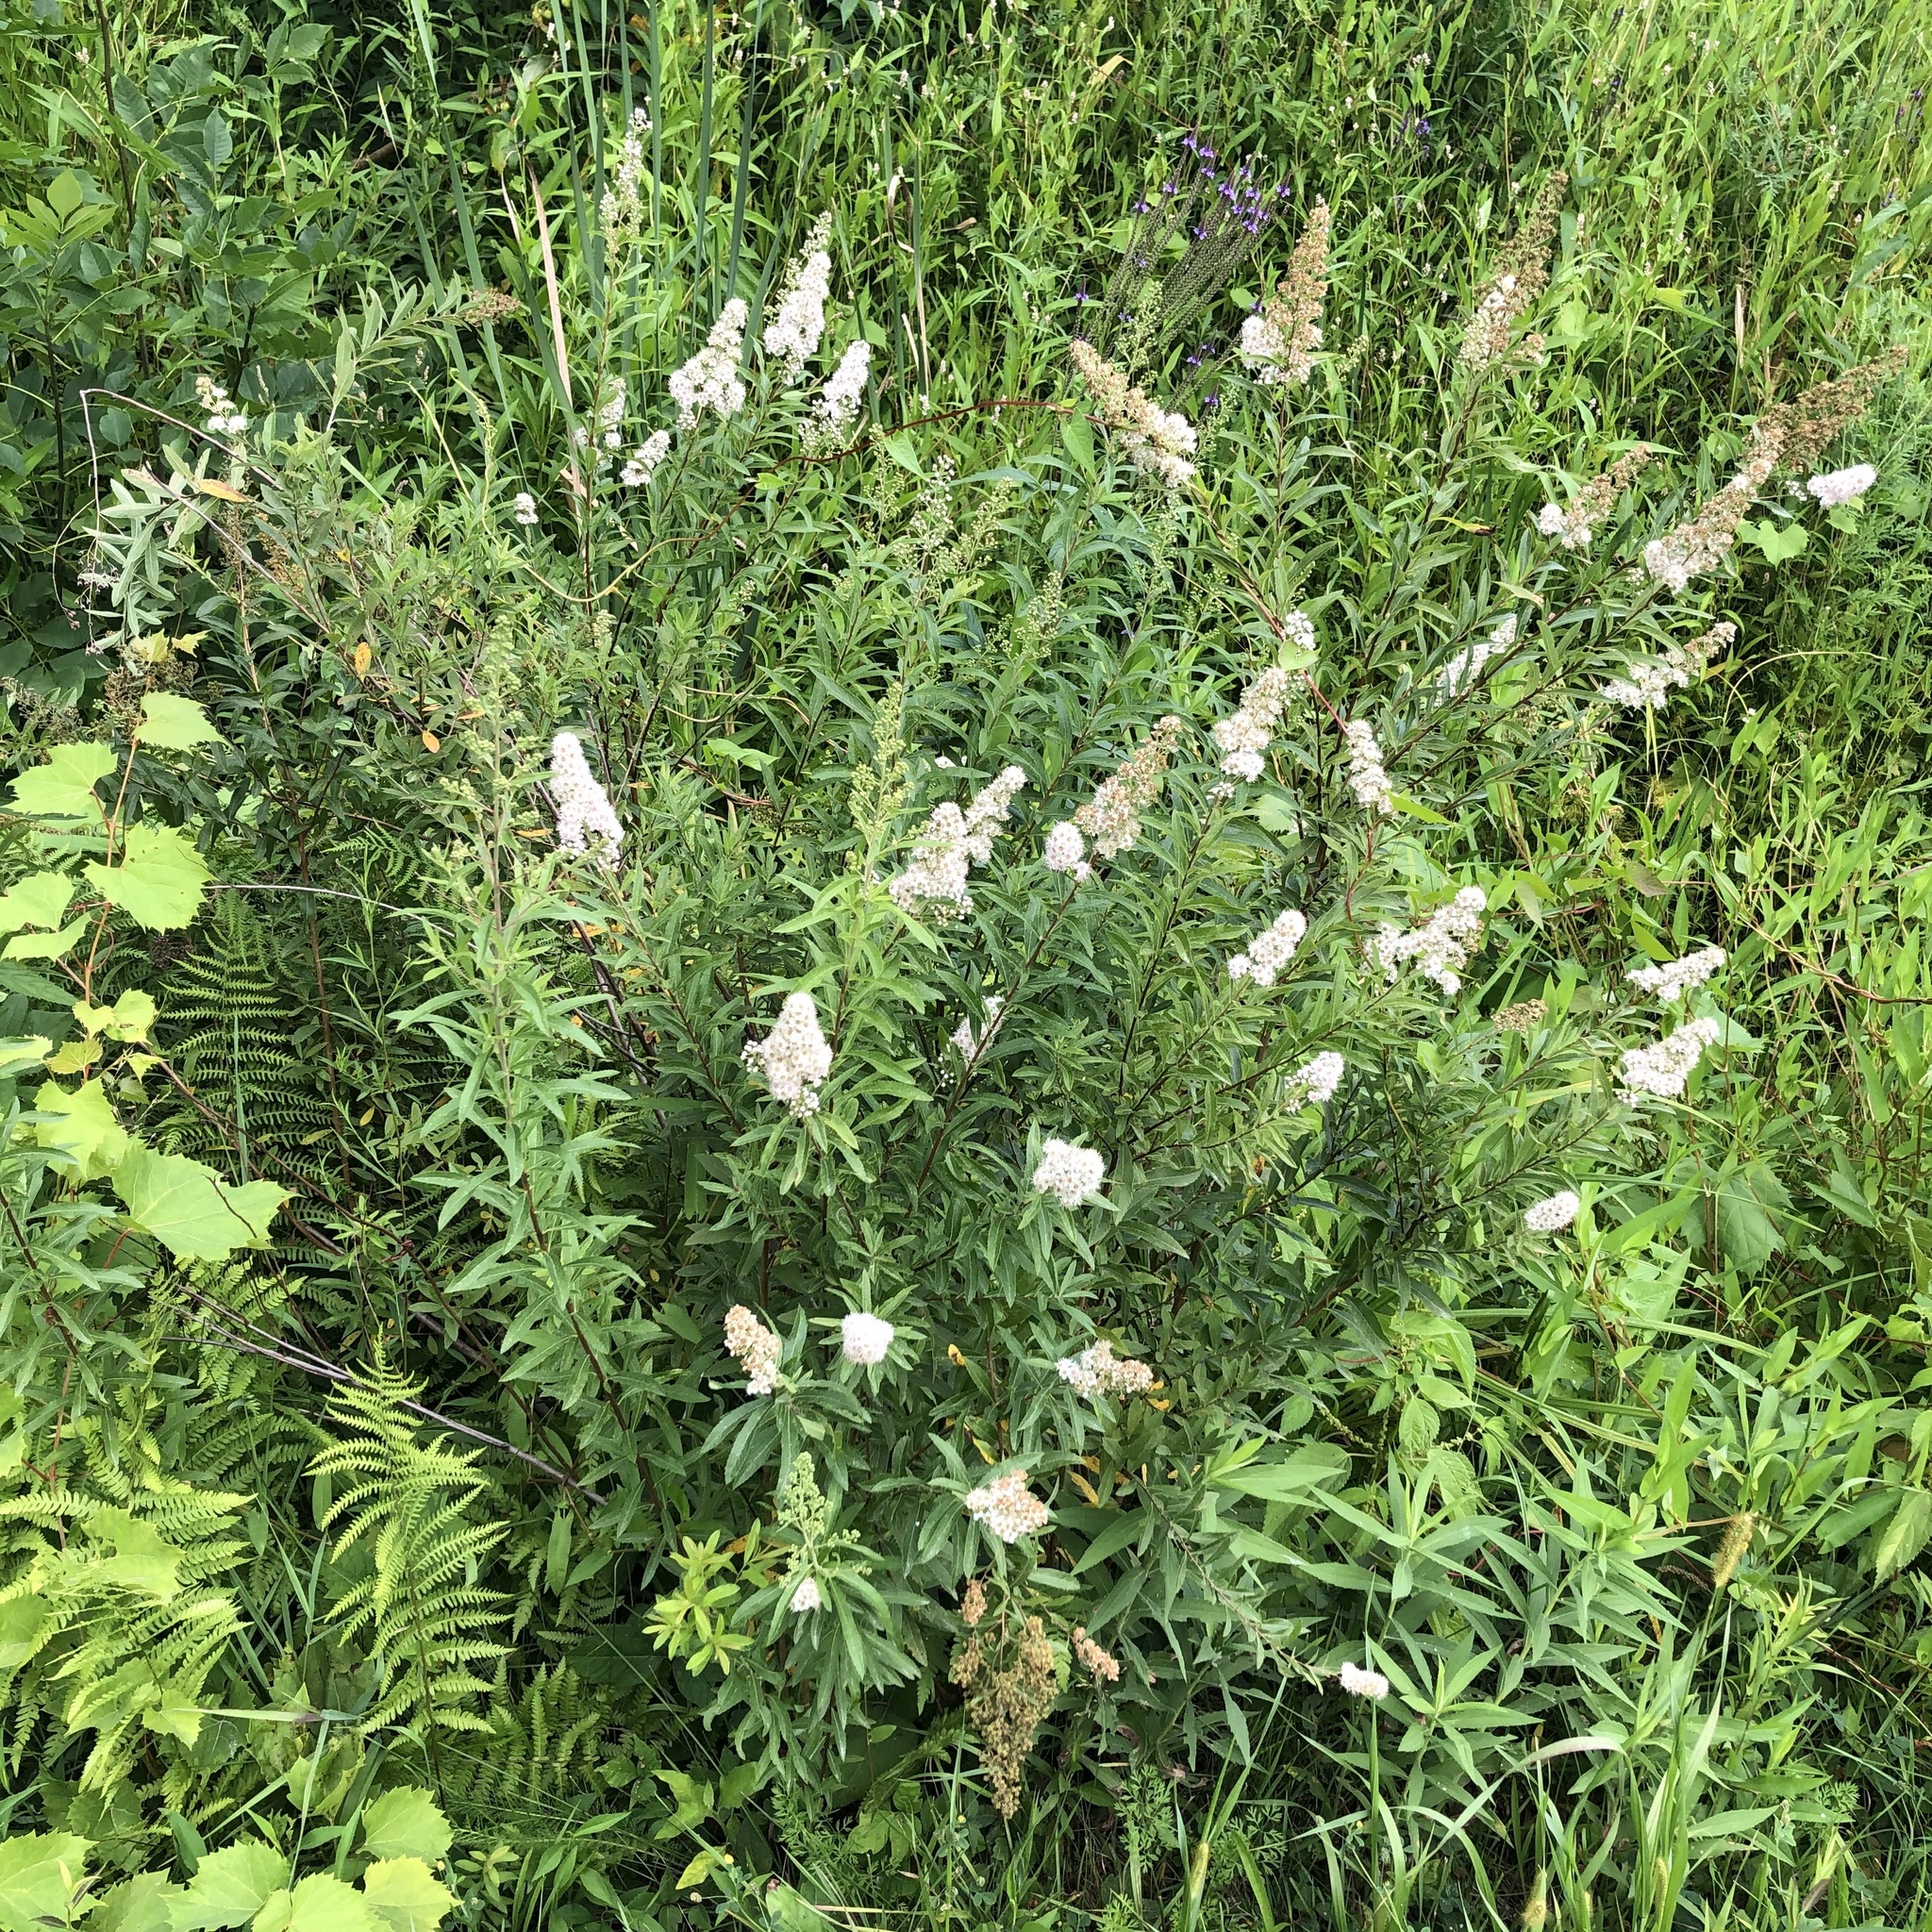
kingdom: Plantae
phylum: Tracheophyta
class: Magnoliopsida
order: Rosales
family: Rosaceae
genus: Spiraea
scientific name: Spiraea alba
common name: Pale bridewort
